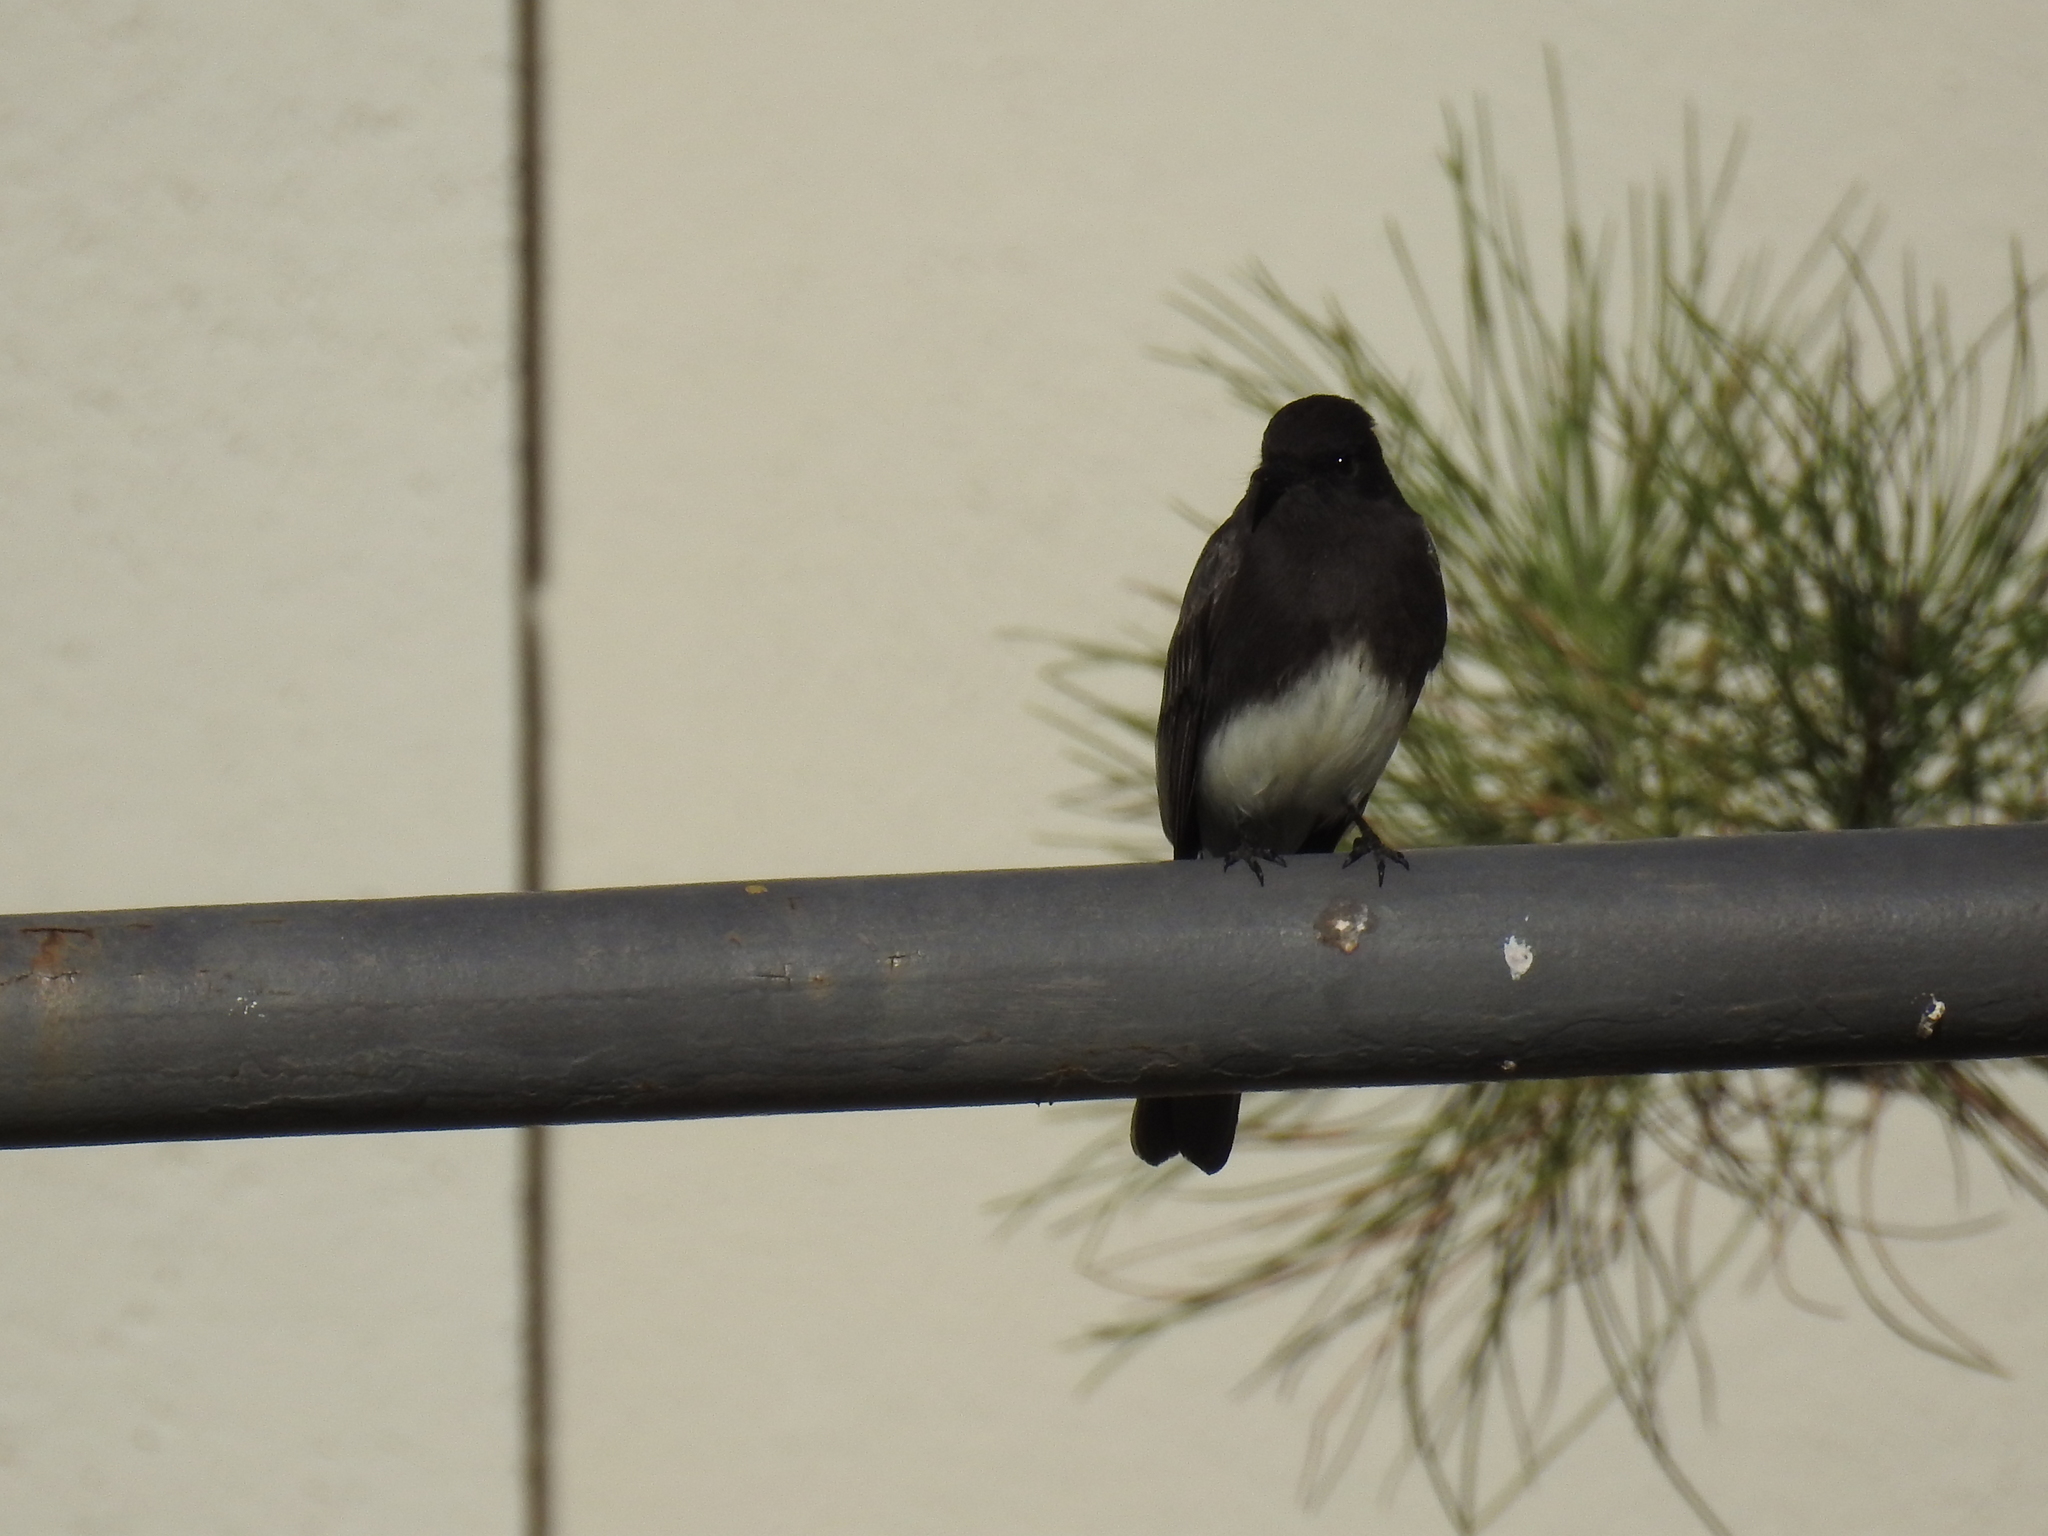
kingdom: Animalia
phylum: Chordata
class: Aves
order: Passeriformes
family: Tyrannidae
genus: Sayornis
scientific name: Sayornis nigricans
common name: Black phoebe
